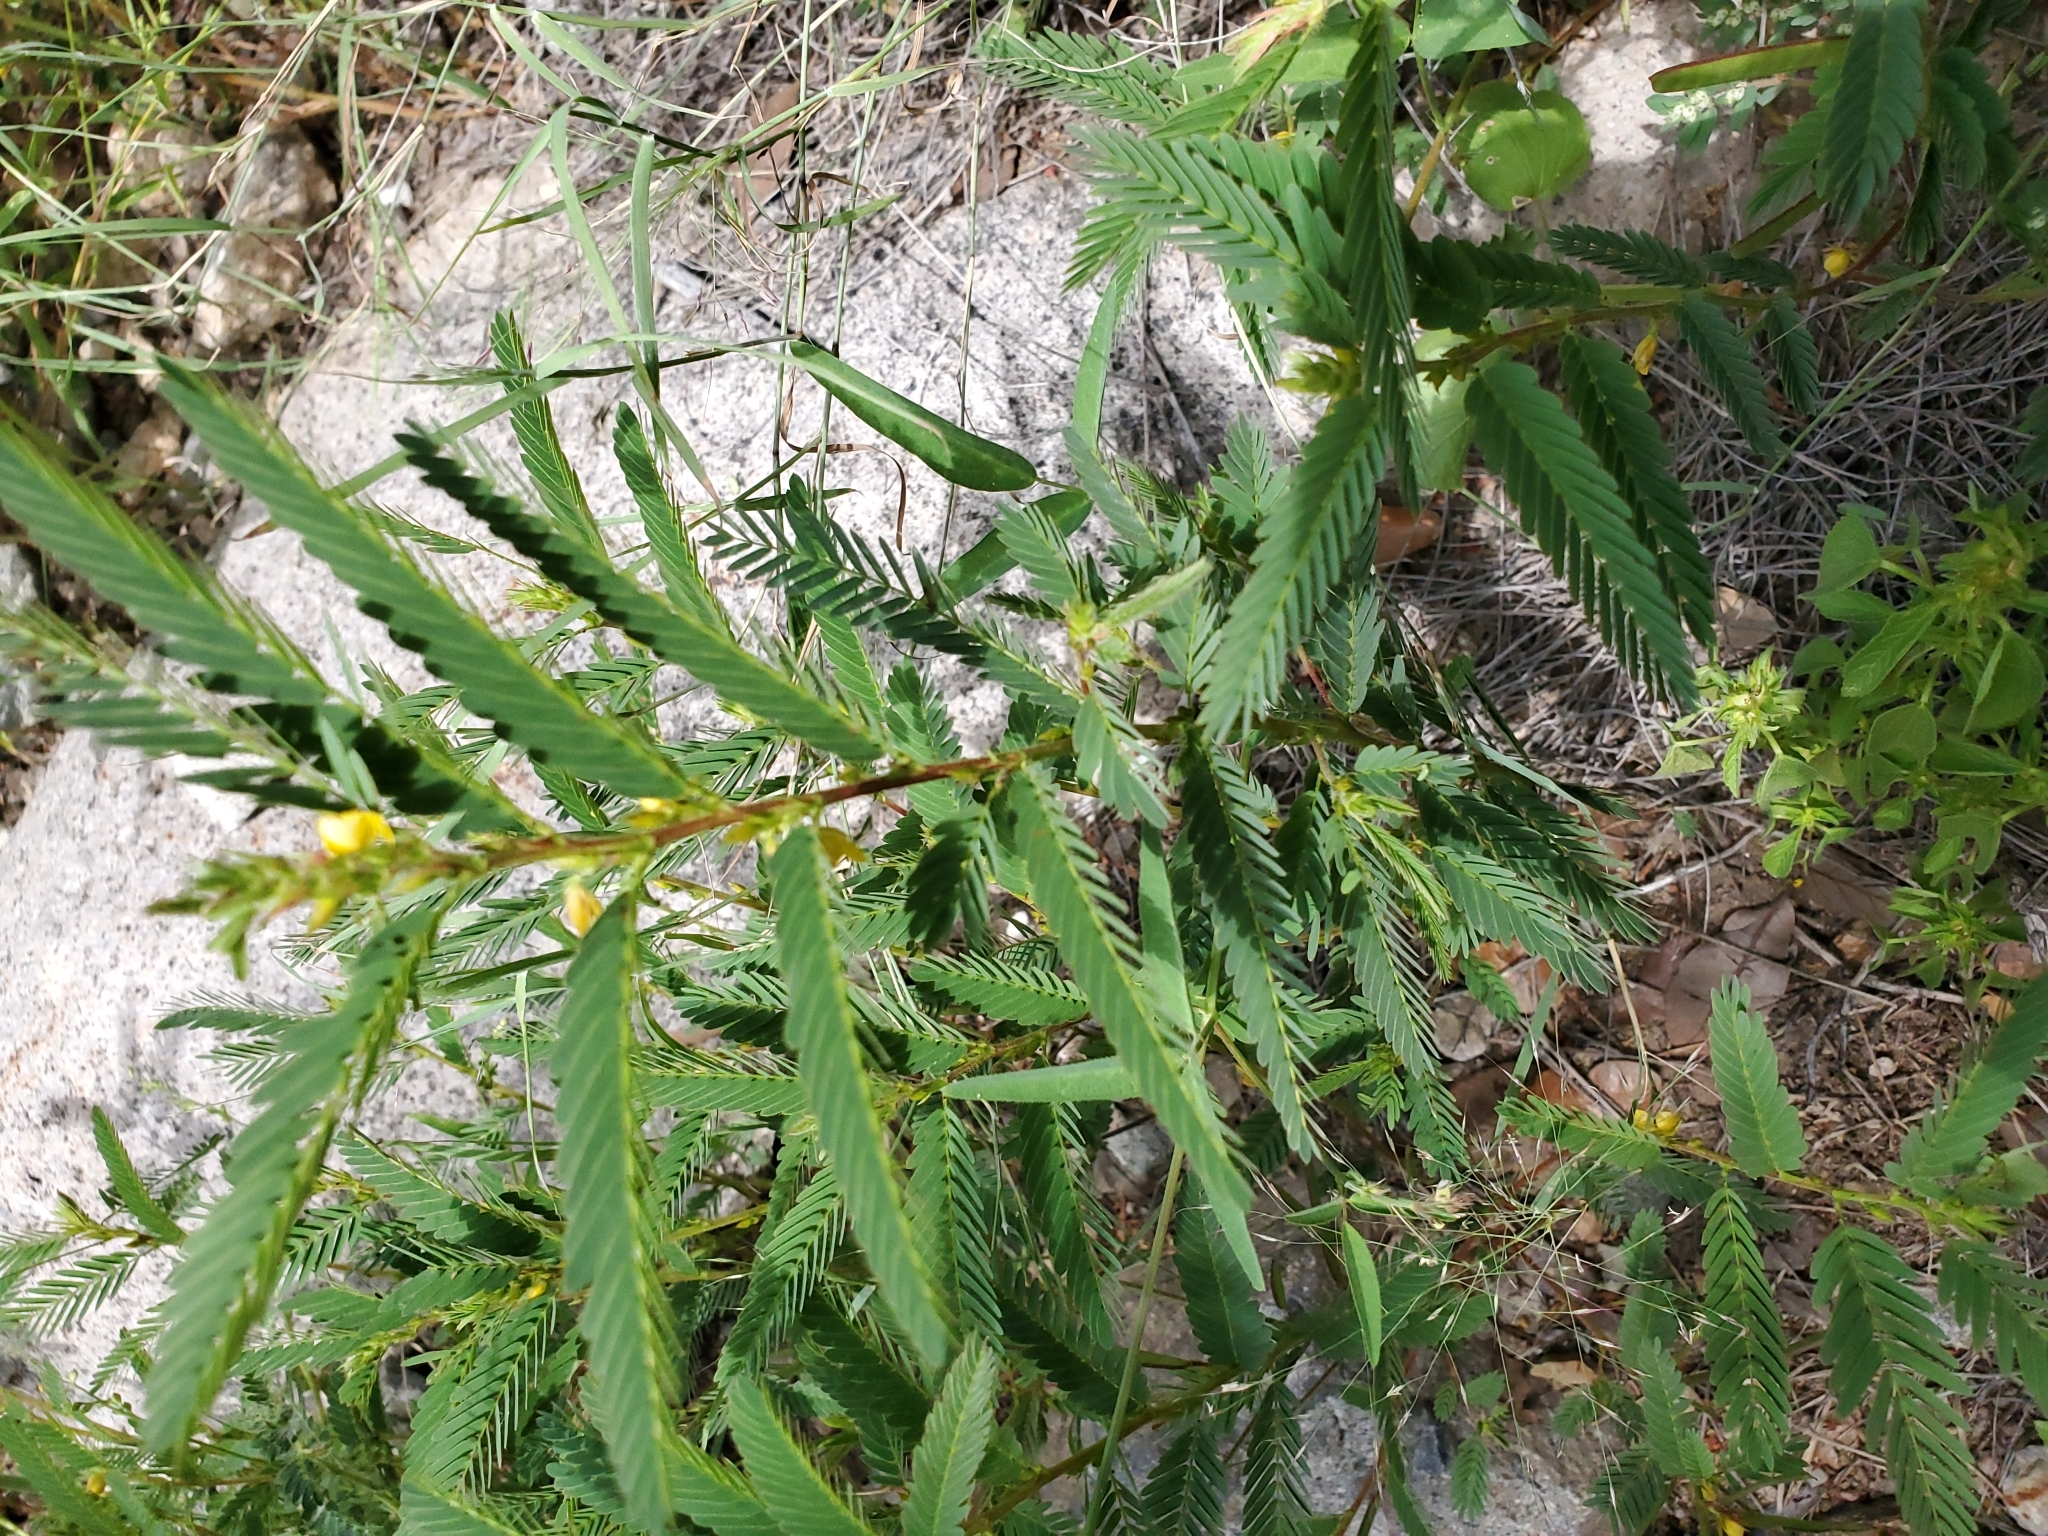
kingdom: Plantae
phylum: Tracheophyta
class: Magnoliopsida
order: Fabales
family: Fabaceae
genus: Chamaecrista
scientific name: Chamaecrista nictitans
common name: Sensitive cassia
